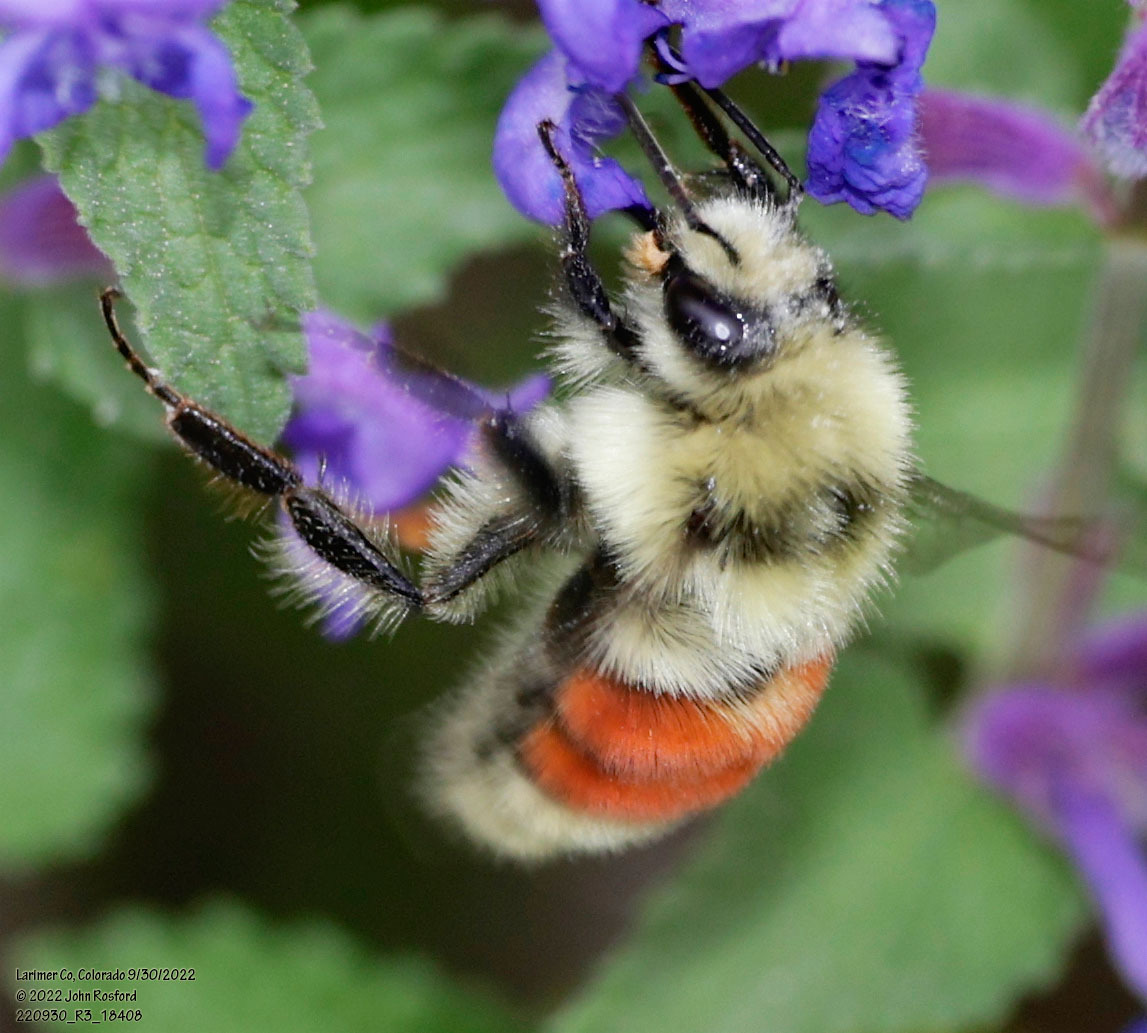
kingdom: Animalia
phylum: Arthropoda
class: Insecta
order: Hymenoptera
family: Apidae
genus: Bombus
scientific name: Bombus huntii
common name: Hunt bumble bee
